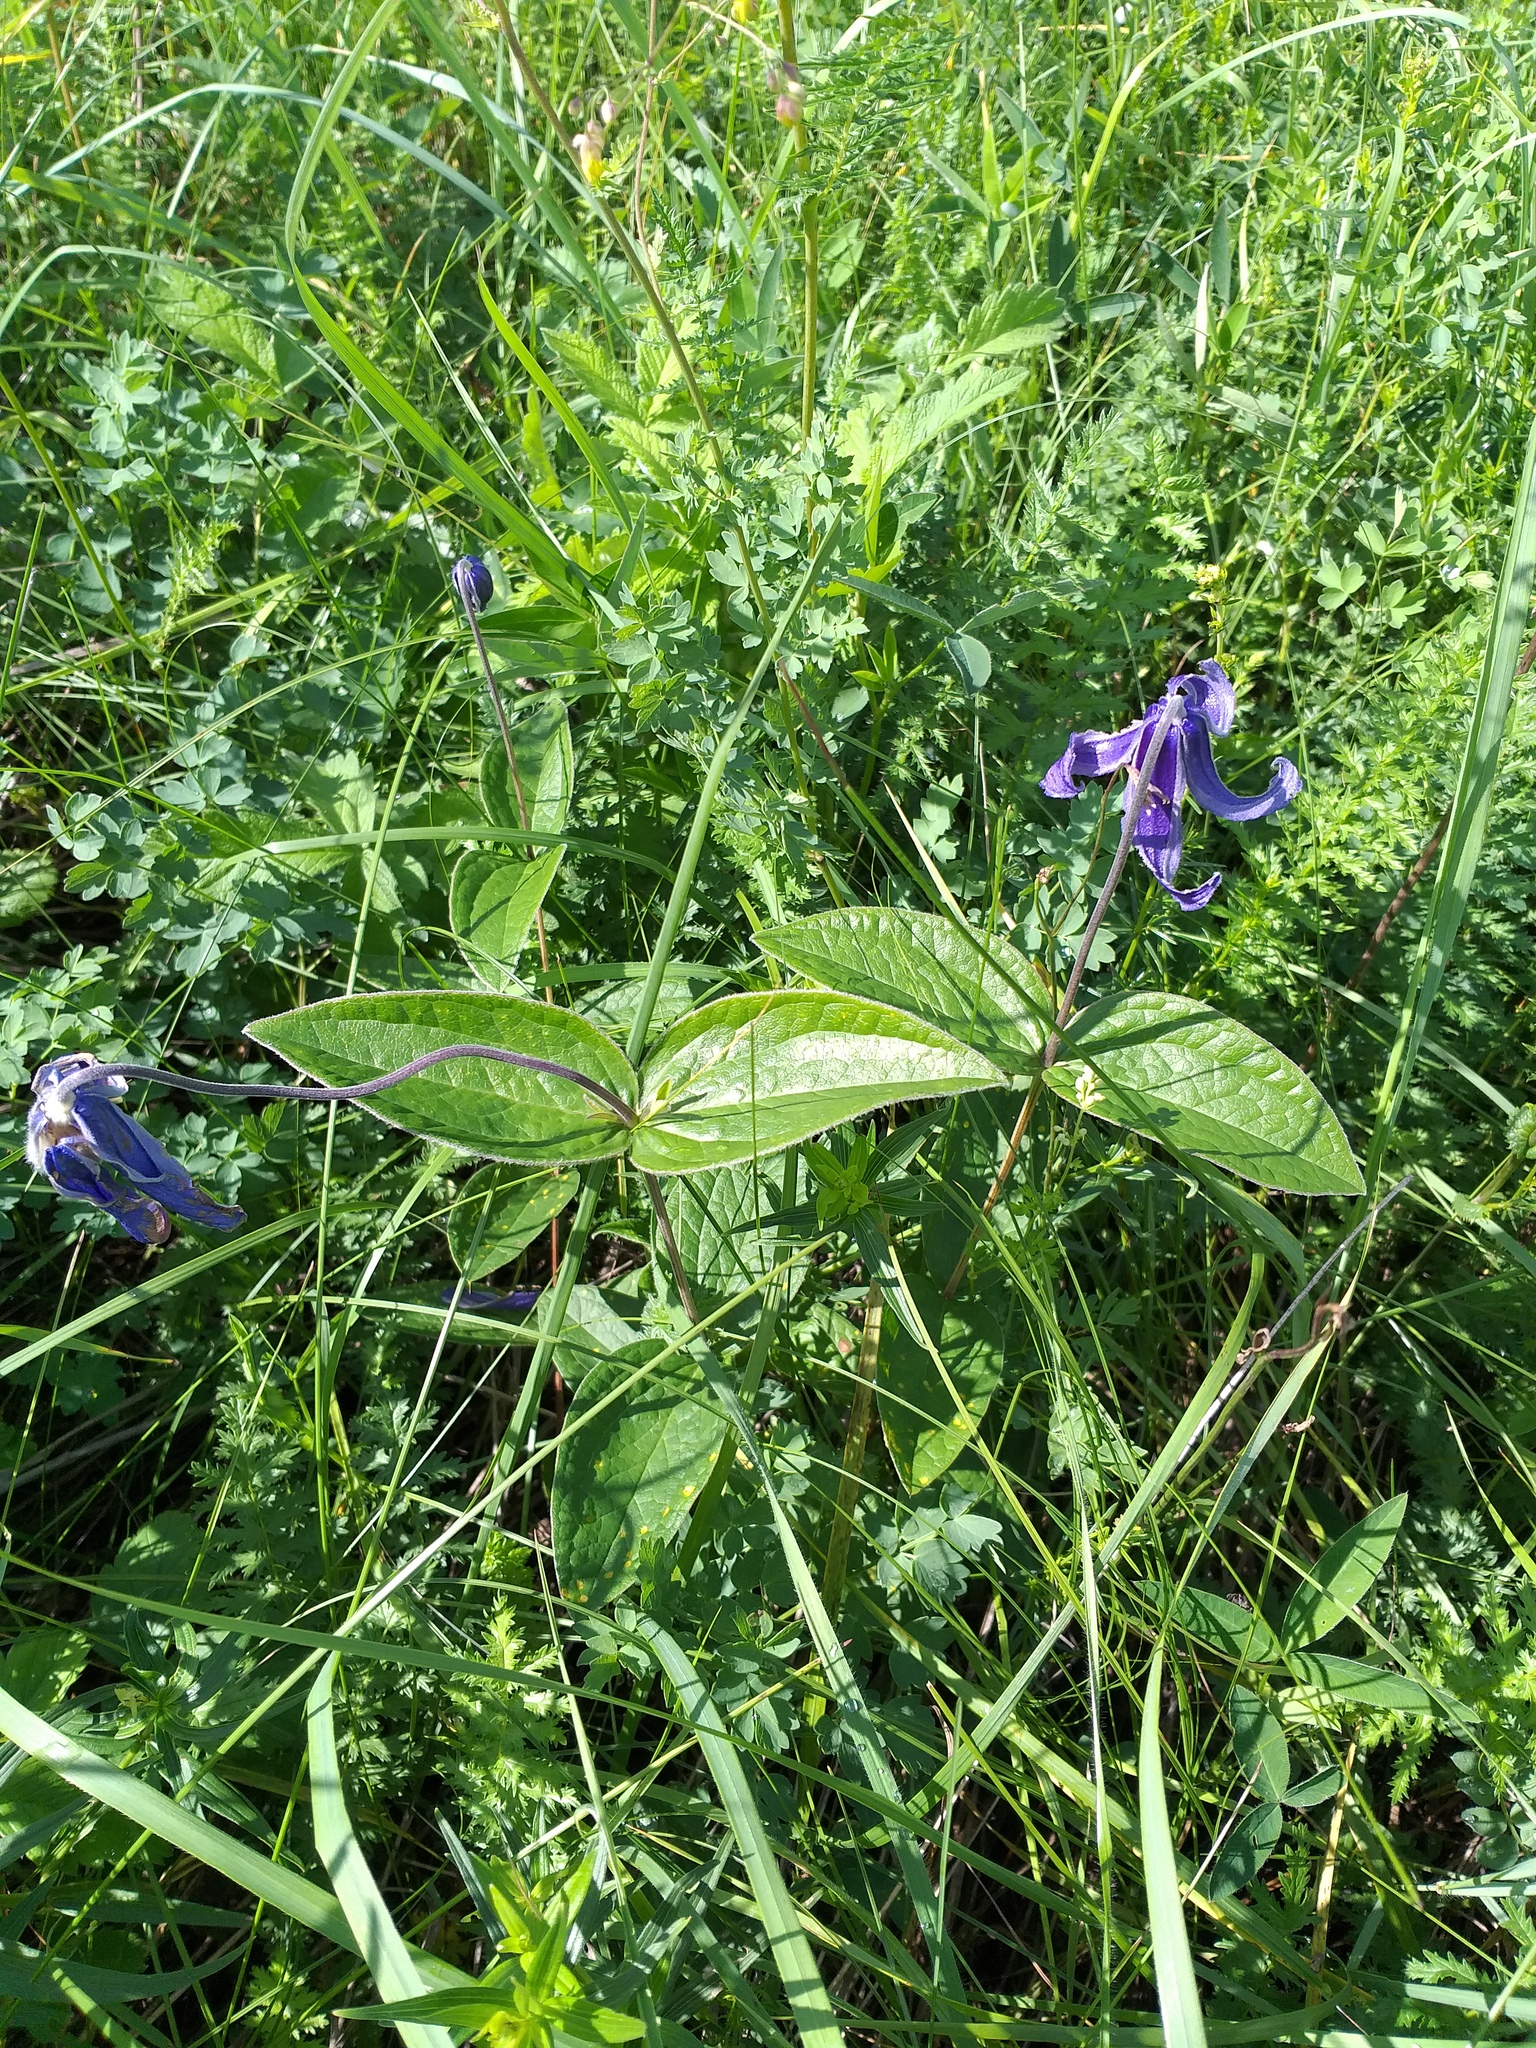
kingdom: Plantae
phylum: Tracheophyta
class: Magnoliopsida
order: Ranunculales
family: Ranunculaceae
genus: Clematis
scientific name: Clematis integrifolia
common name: Solitary clematis
